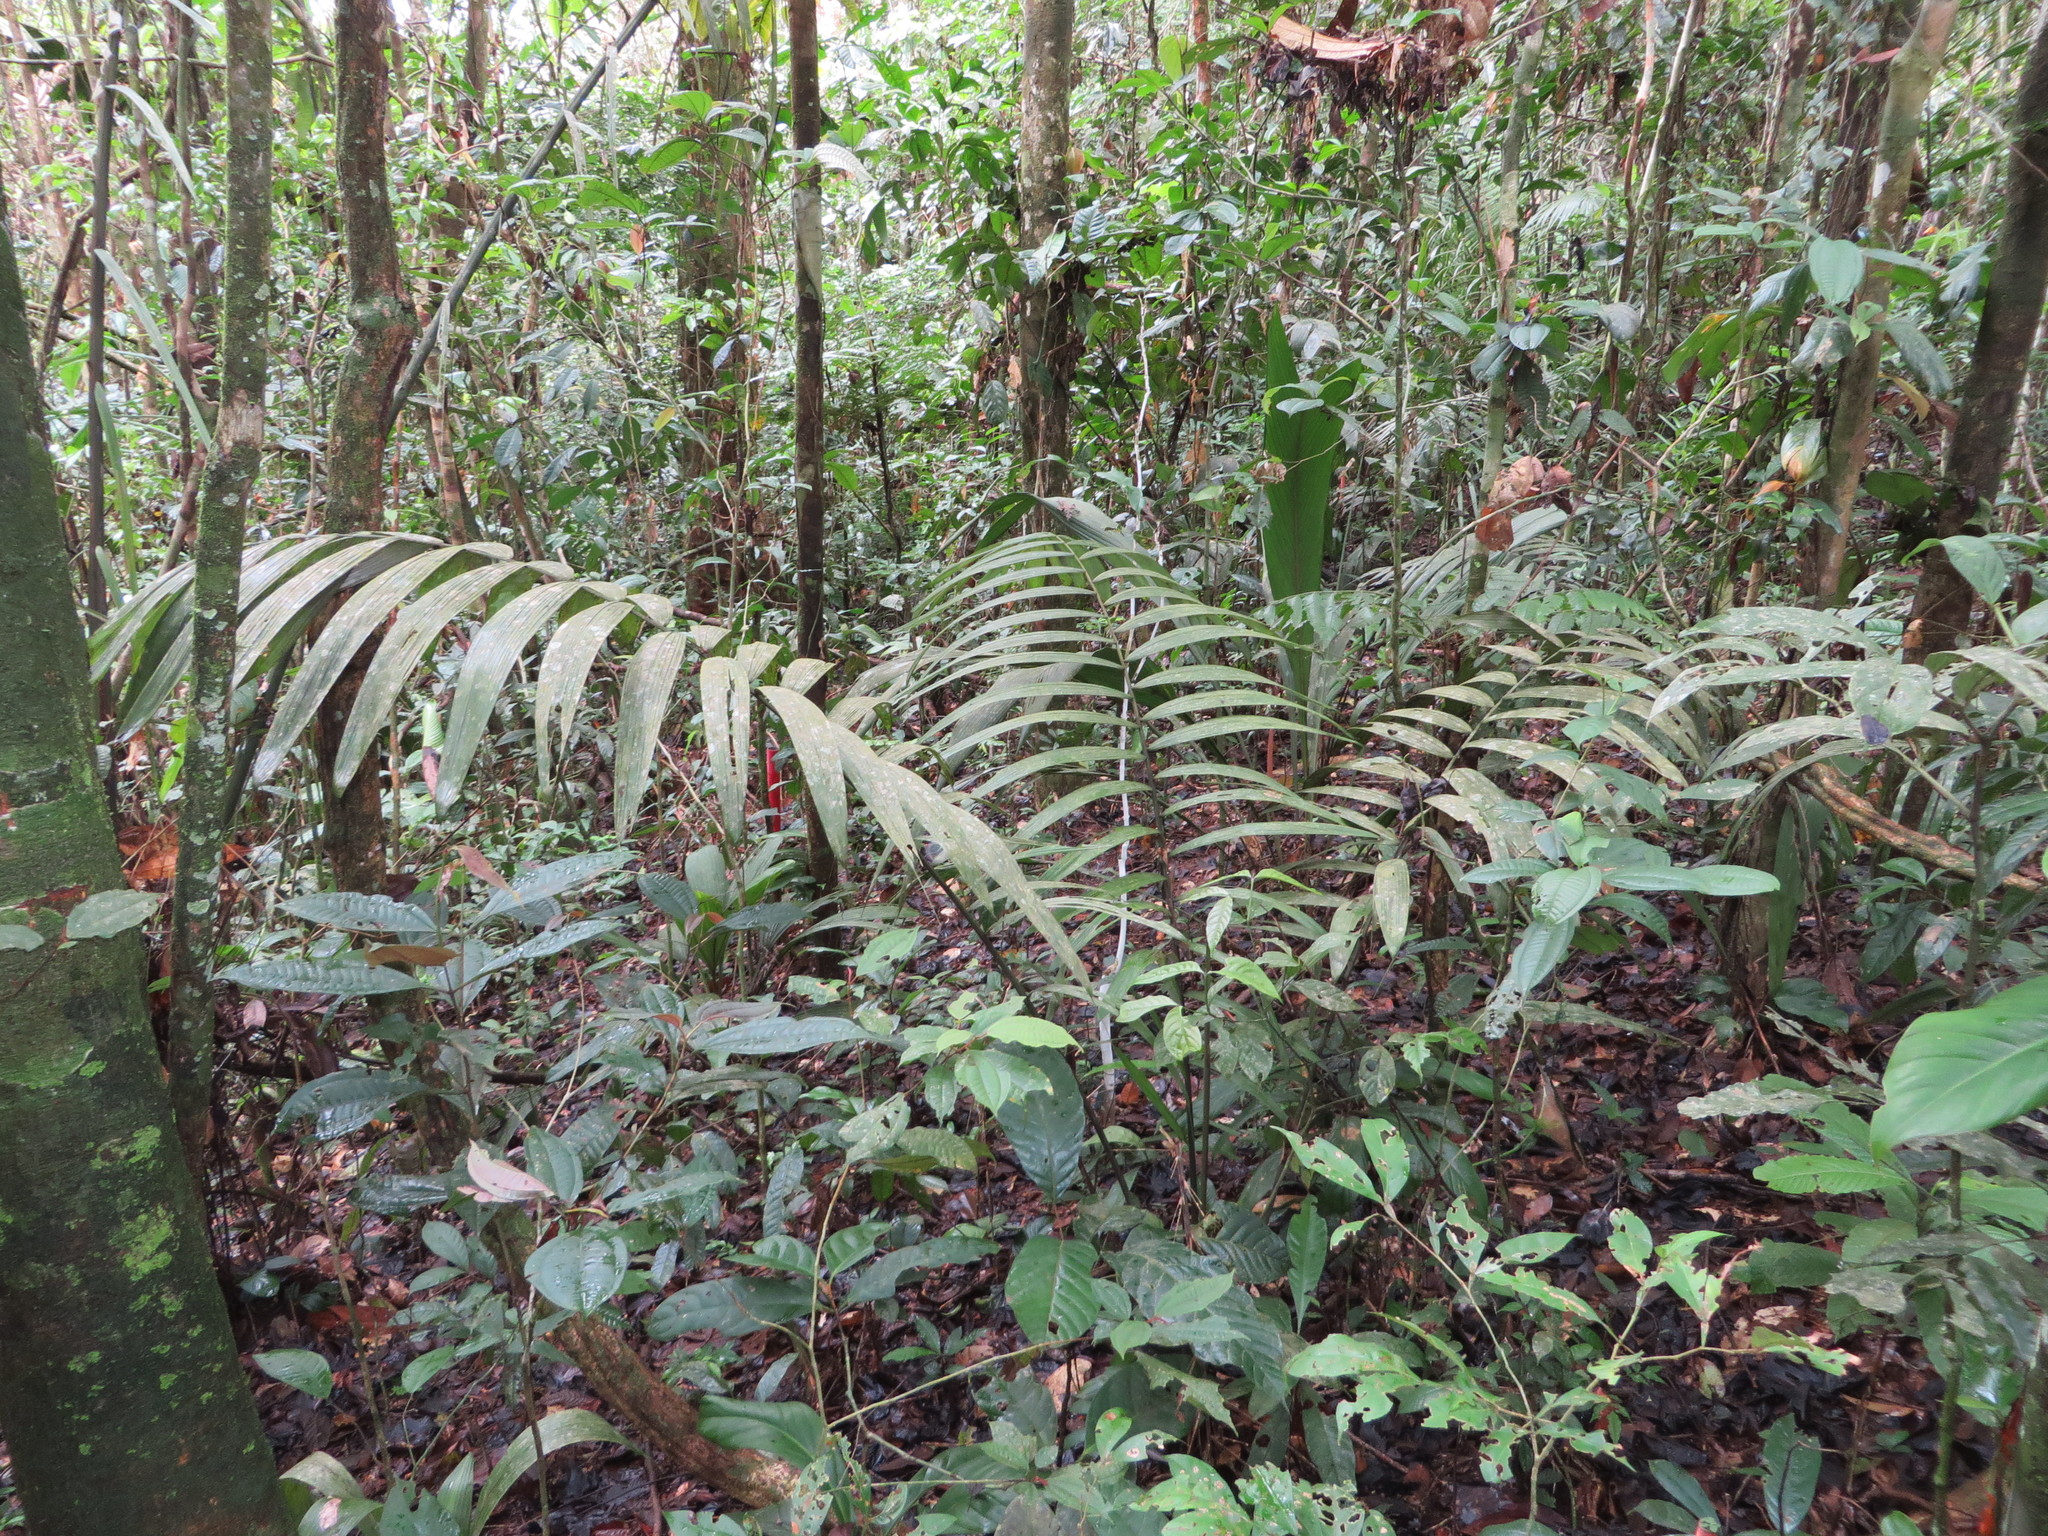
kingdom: Plantae
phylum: Tracheophyta
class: Liliopsida
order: Arecales
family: Arecaceae
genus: Oenocarpus
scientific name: Oenocarpus bataua
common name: Bataua palm
